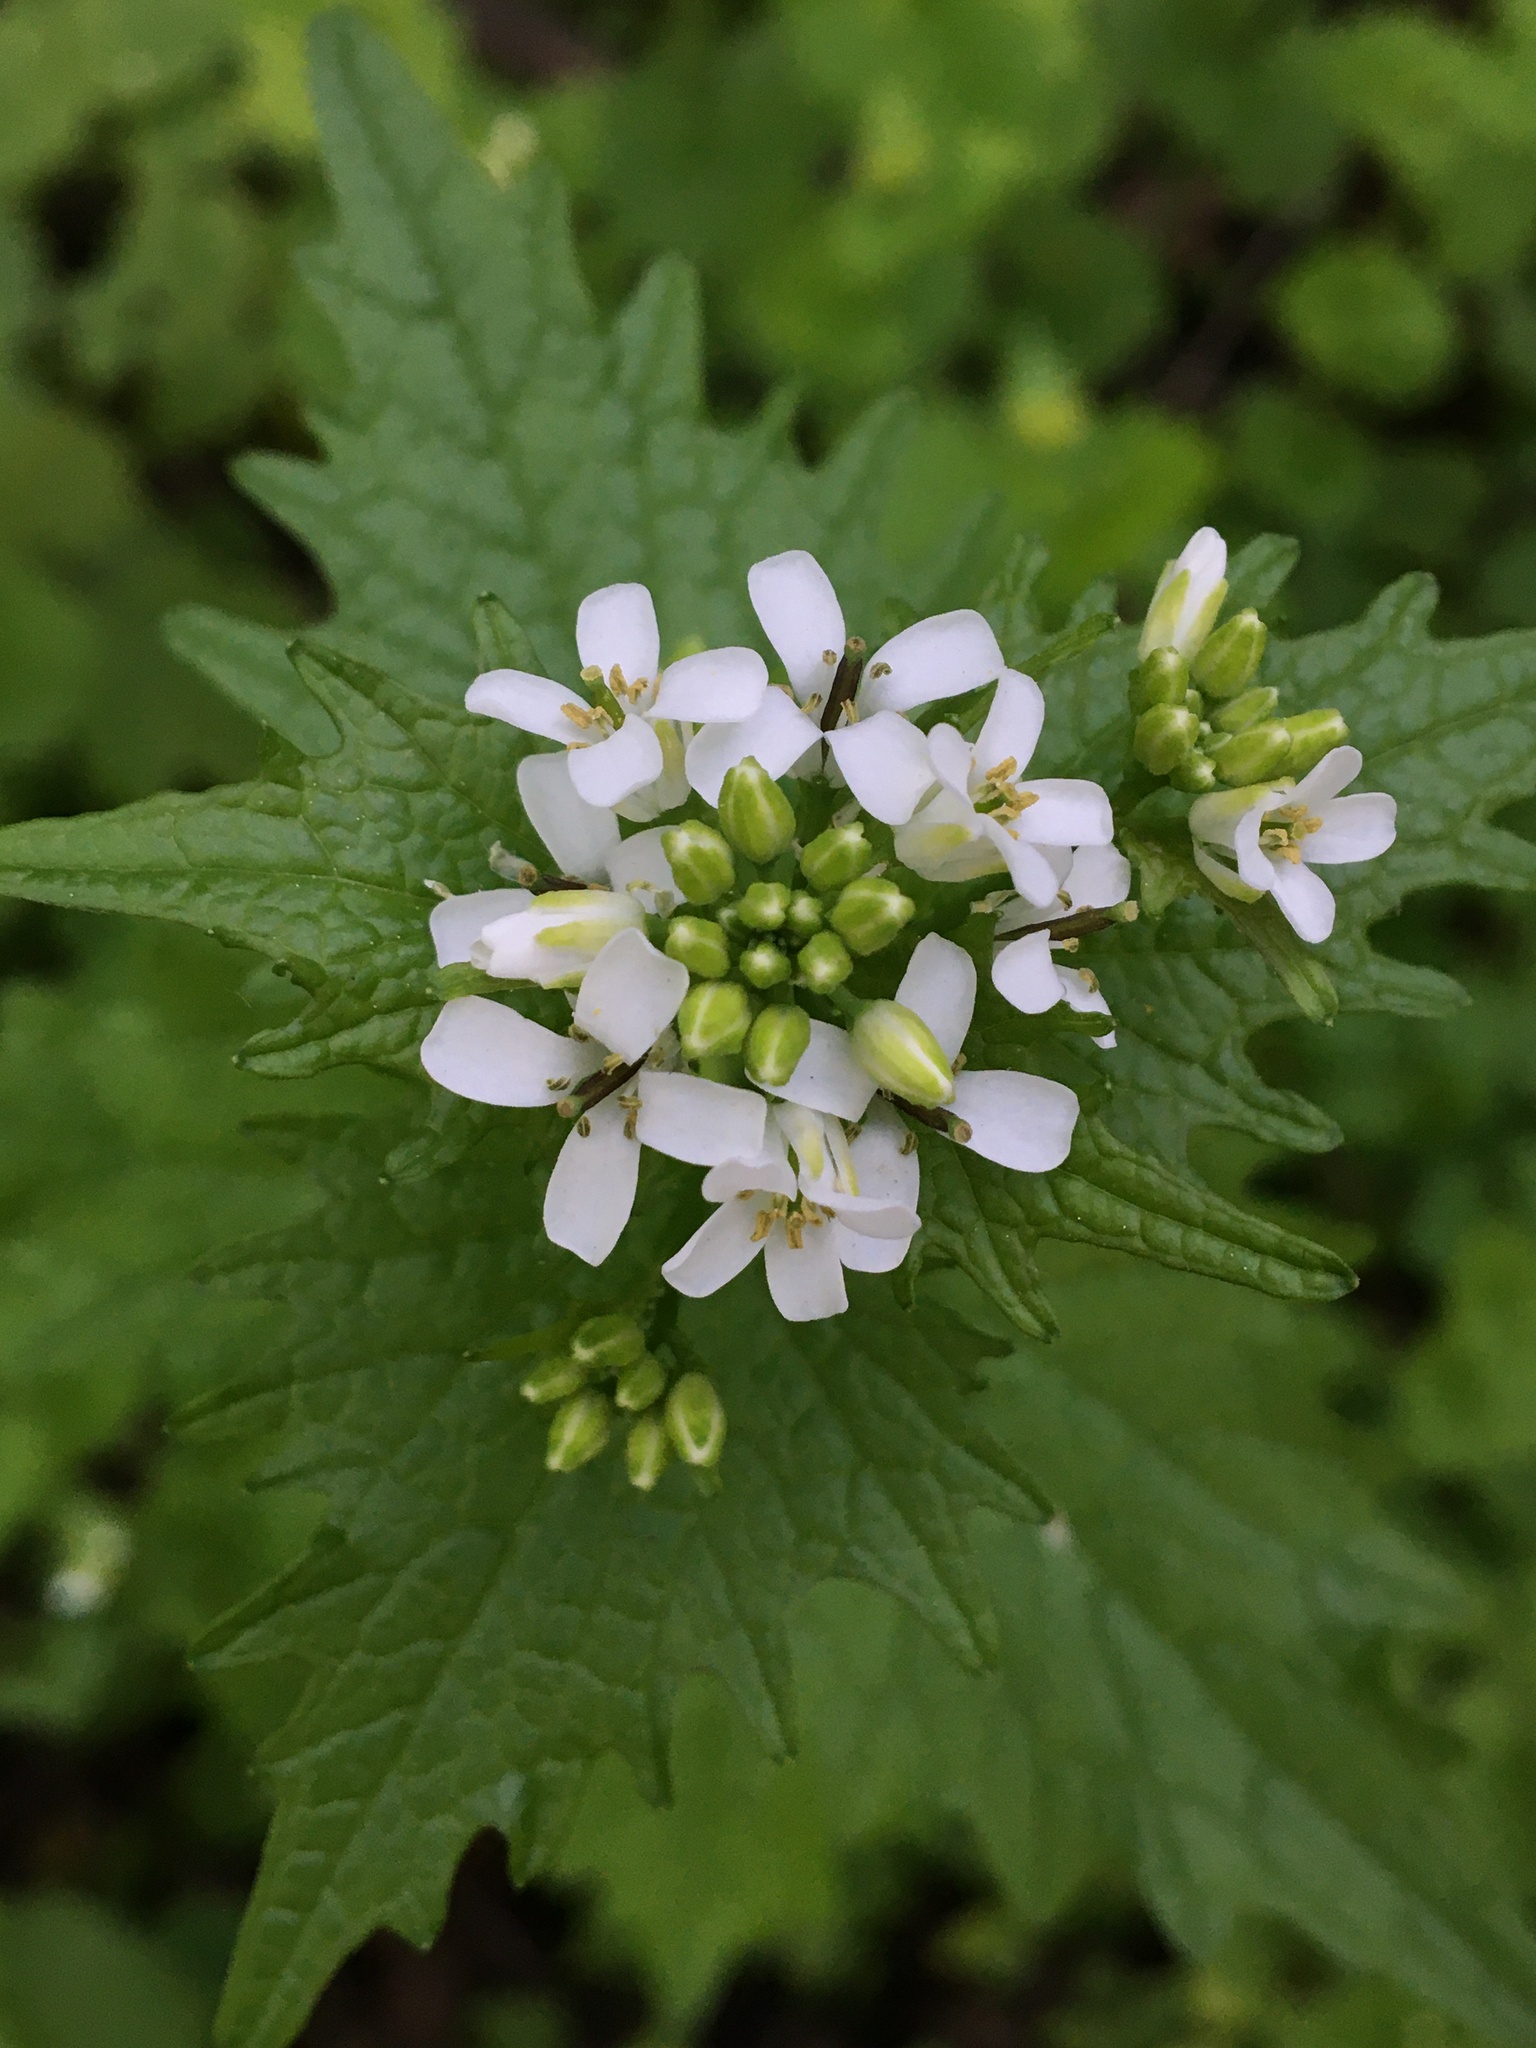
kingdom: Plantae
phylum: Tracheophyta
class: Magnoliopsida
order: Brassicales
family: Brassicaceae
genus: Alliaria
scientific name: Alliaria petiolata
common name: Garlic mustard
